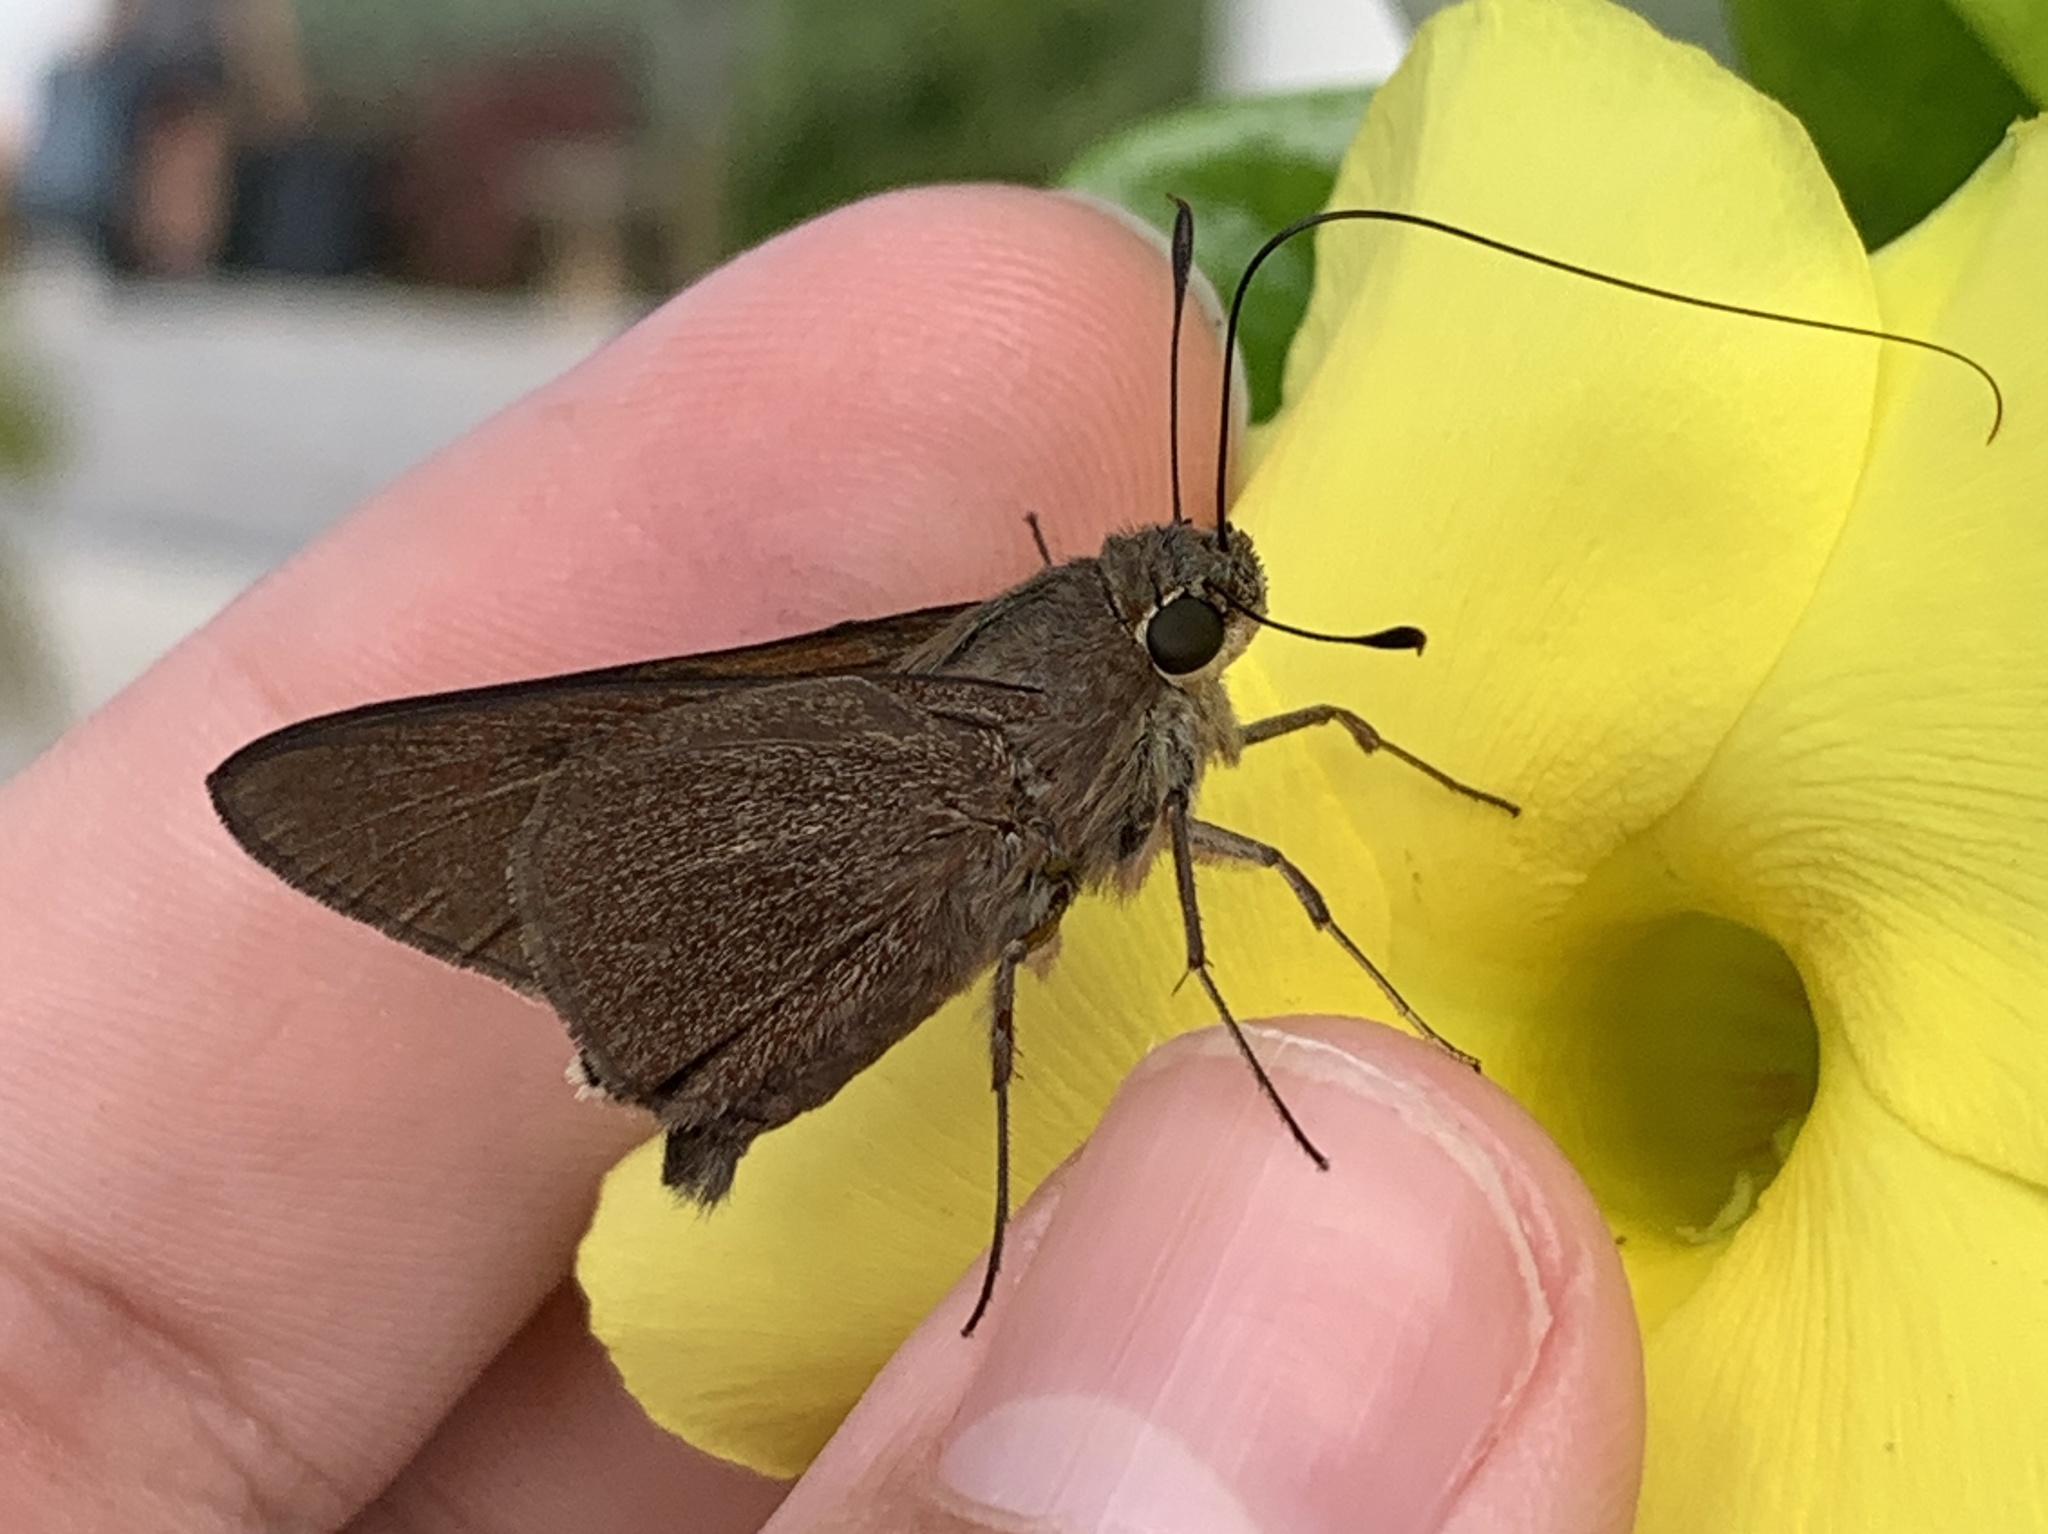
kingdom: Animalia
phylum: Arthropoda
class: Insecta
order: Lepidoptera
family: Hesperiidae
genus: Asbolis
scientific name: Asbolis capucinus
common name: Monk skipper
